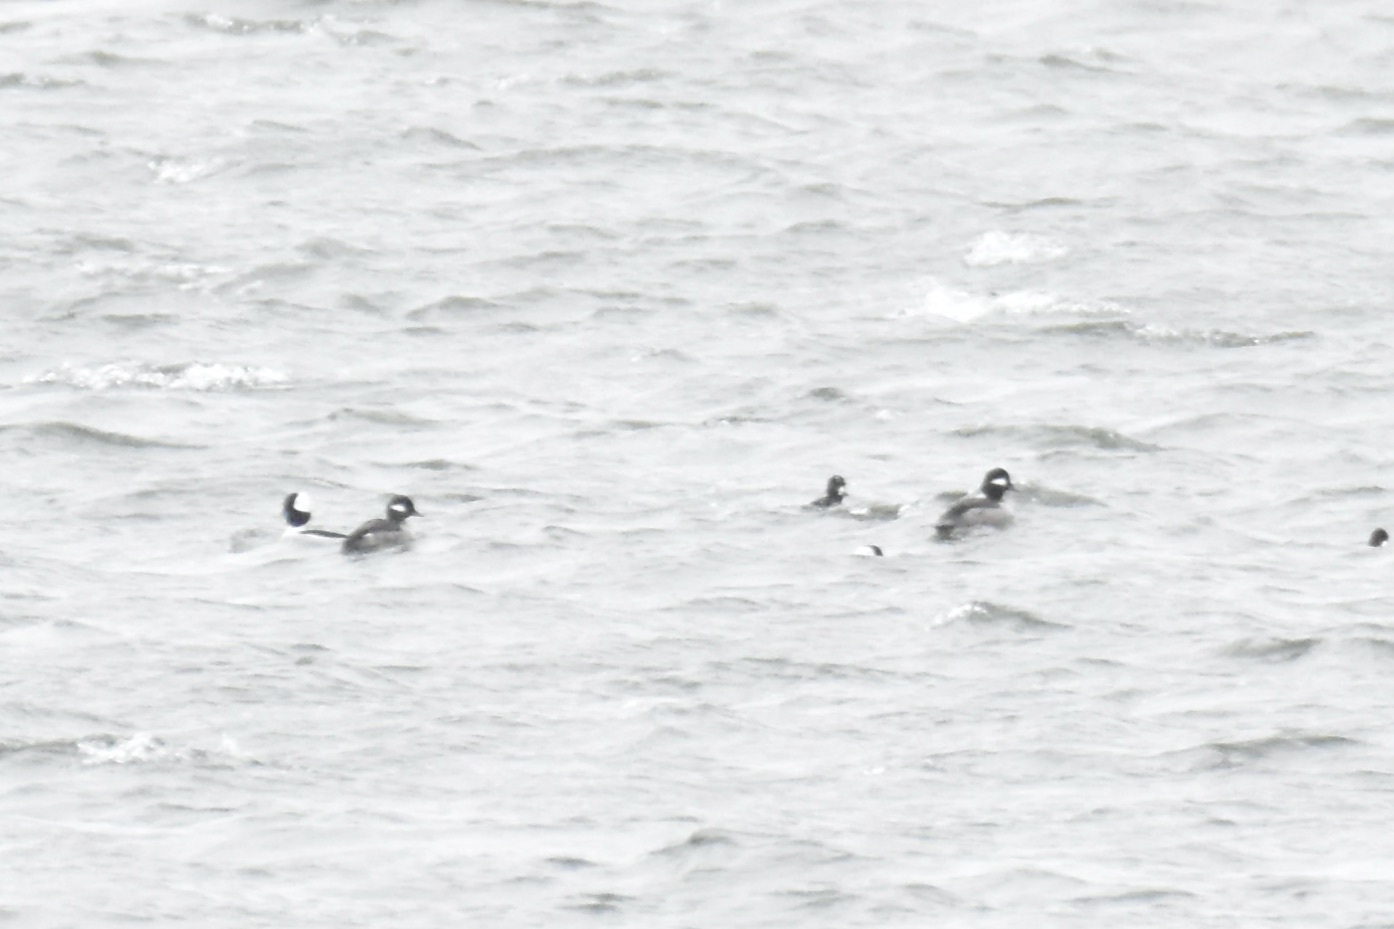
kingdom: Animalia
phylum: Chordata
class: Aves
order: Anseriformes
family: Anatidae
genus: Bucephala
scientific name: Bucephala albeola
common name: Bufflehead
